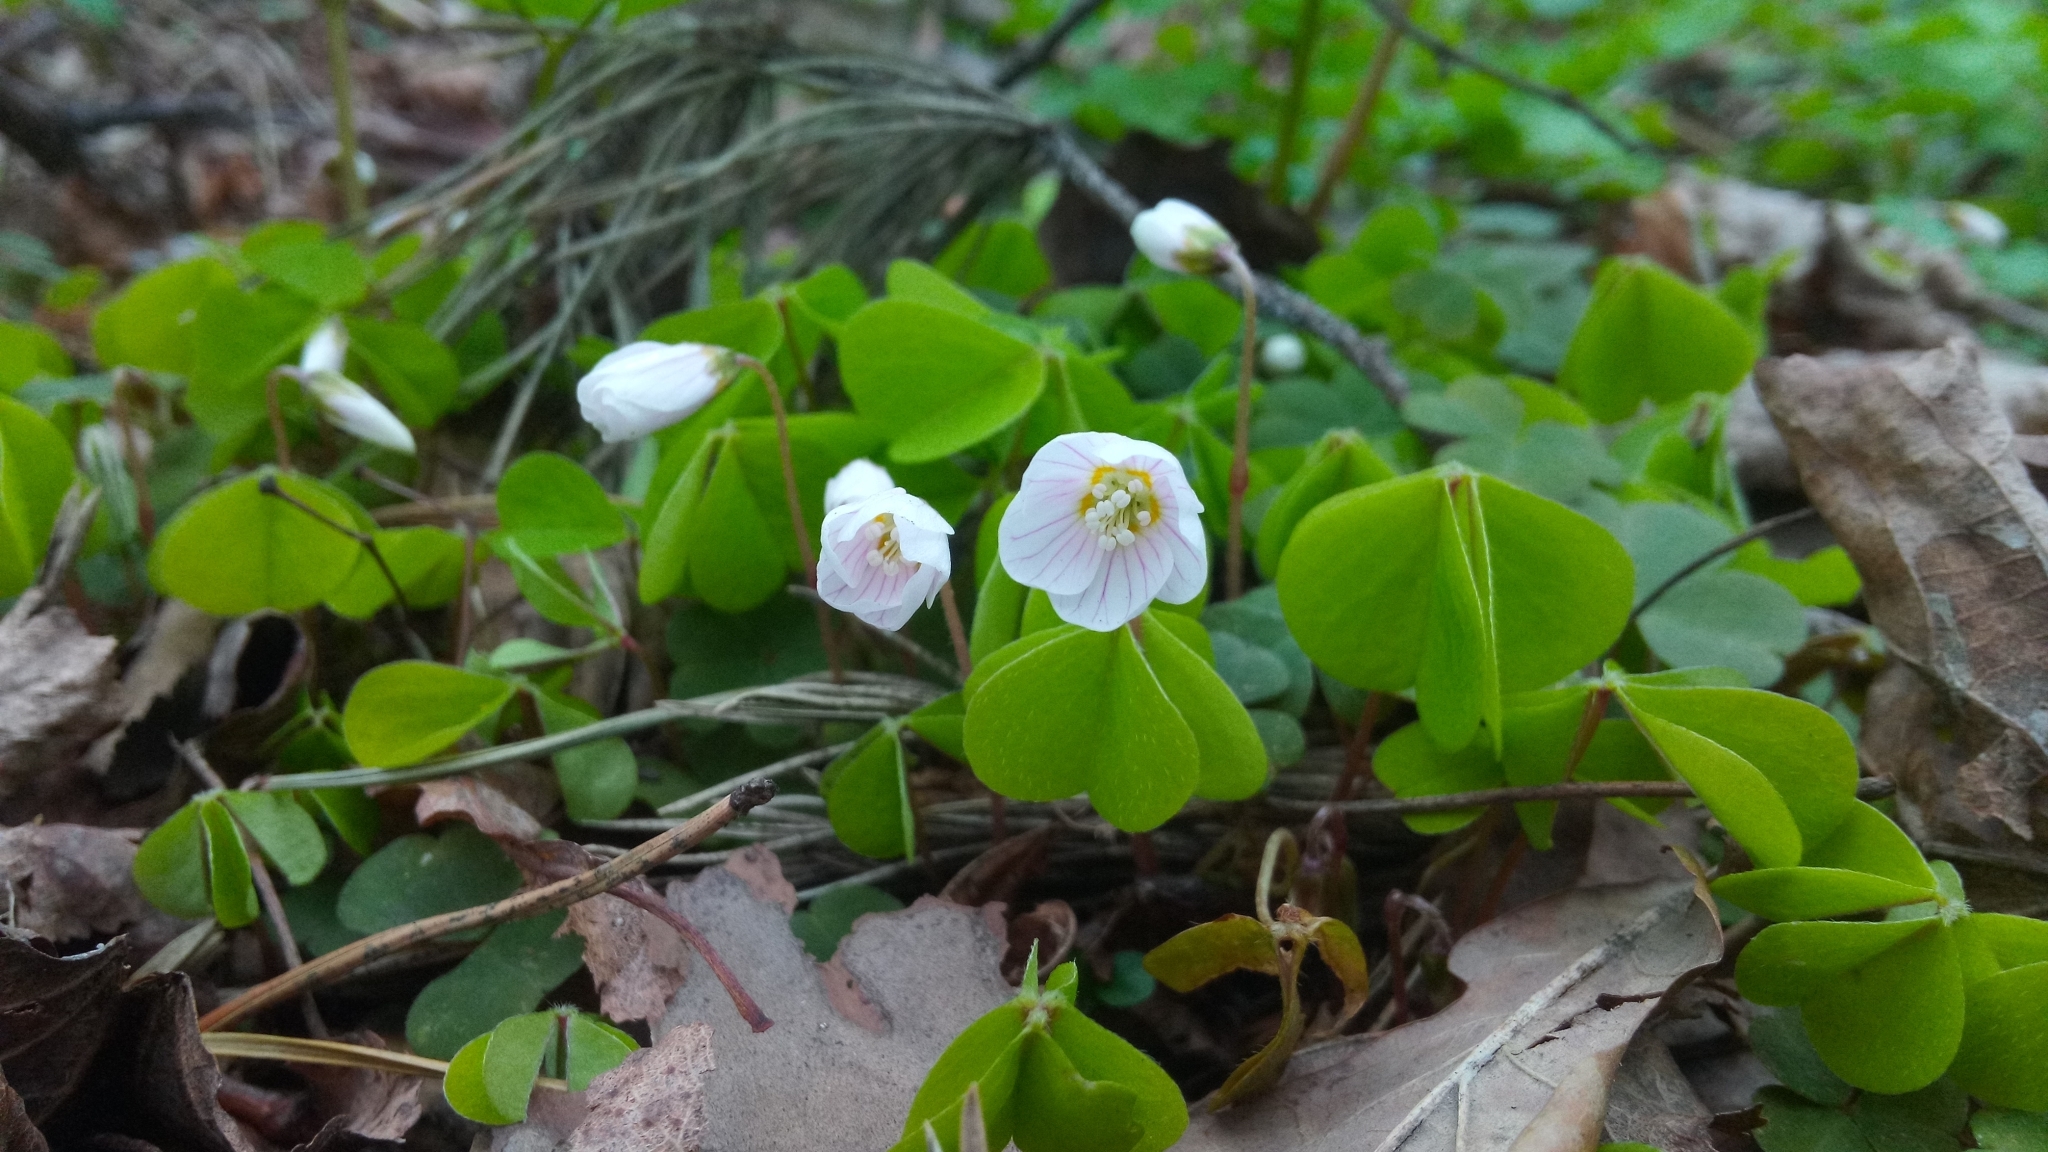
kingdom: Plantae
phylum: Tracheophyta
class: Magnoliopsida
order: Oxalidales
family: Oxalidaceae
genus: Oxalis
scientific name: Oxalis acetosella
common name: Wood-sorrel
